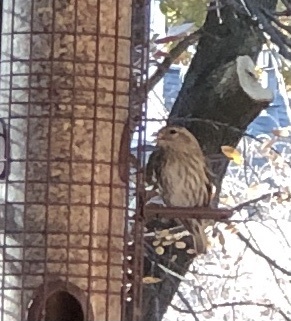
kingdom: Animalia
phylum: Chordata
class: Aves
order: Passeriformes
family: Fringillidae
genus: Haemorhous
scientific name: Haemorhous mexicanus
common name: House finch
